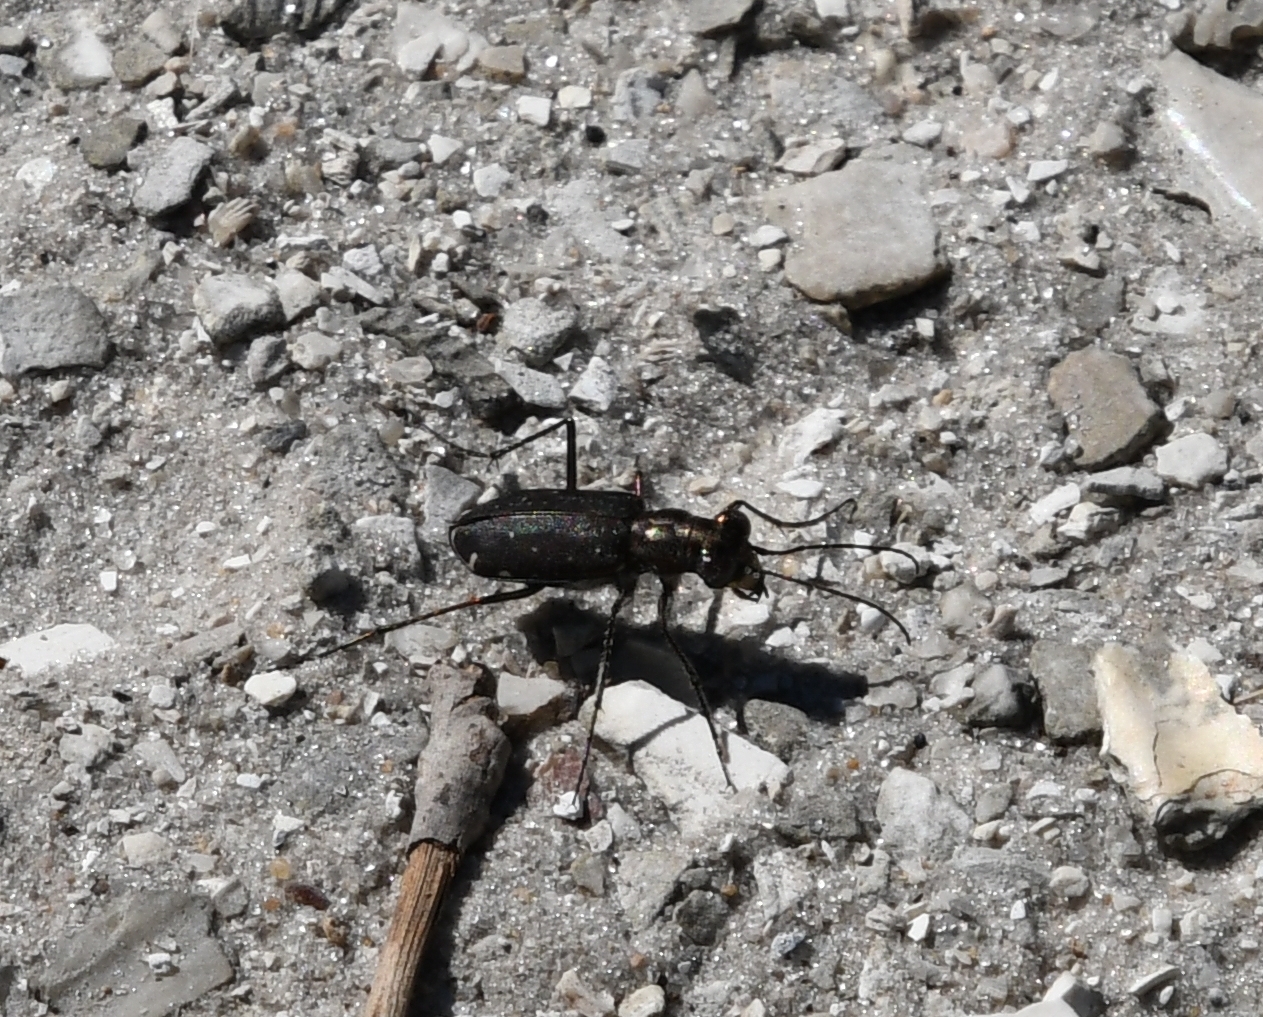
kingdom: Animalia
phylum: Arthropoda
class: Insecta
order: Coleoptera
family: Carabidae
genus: Cicindela
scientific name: Cicindela punctulata
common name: Punctured tiger beetle
